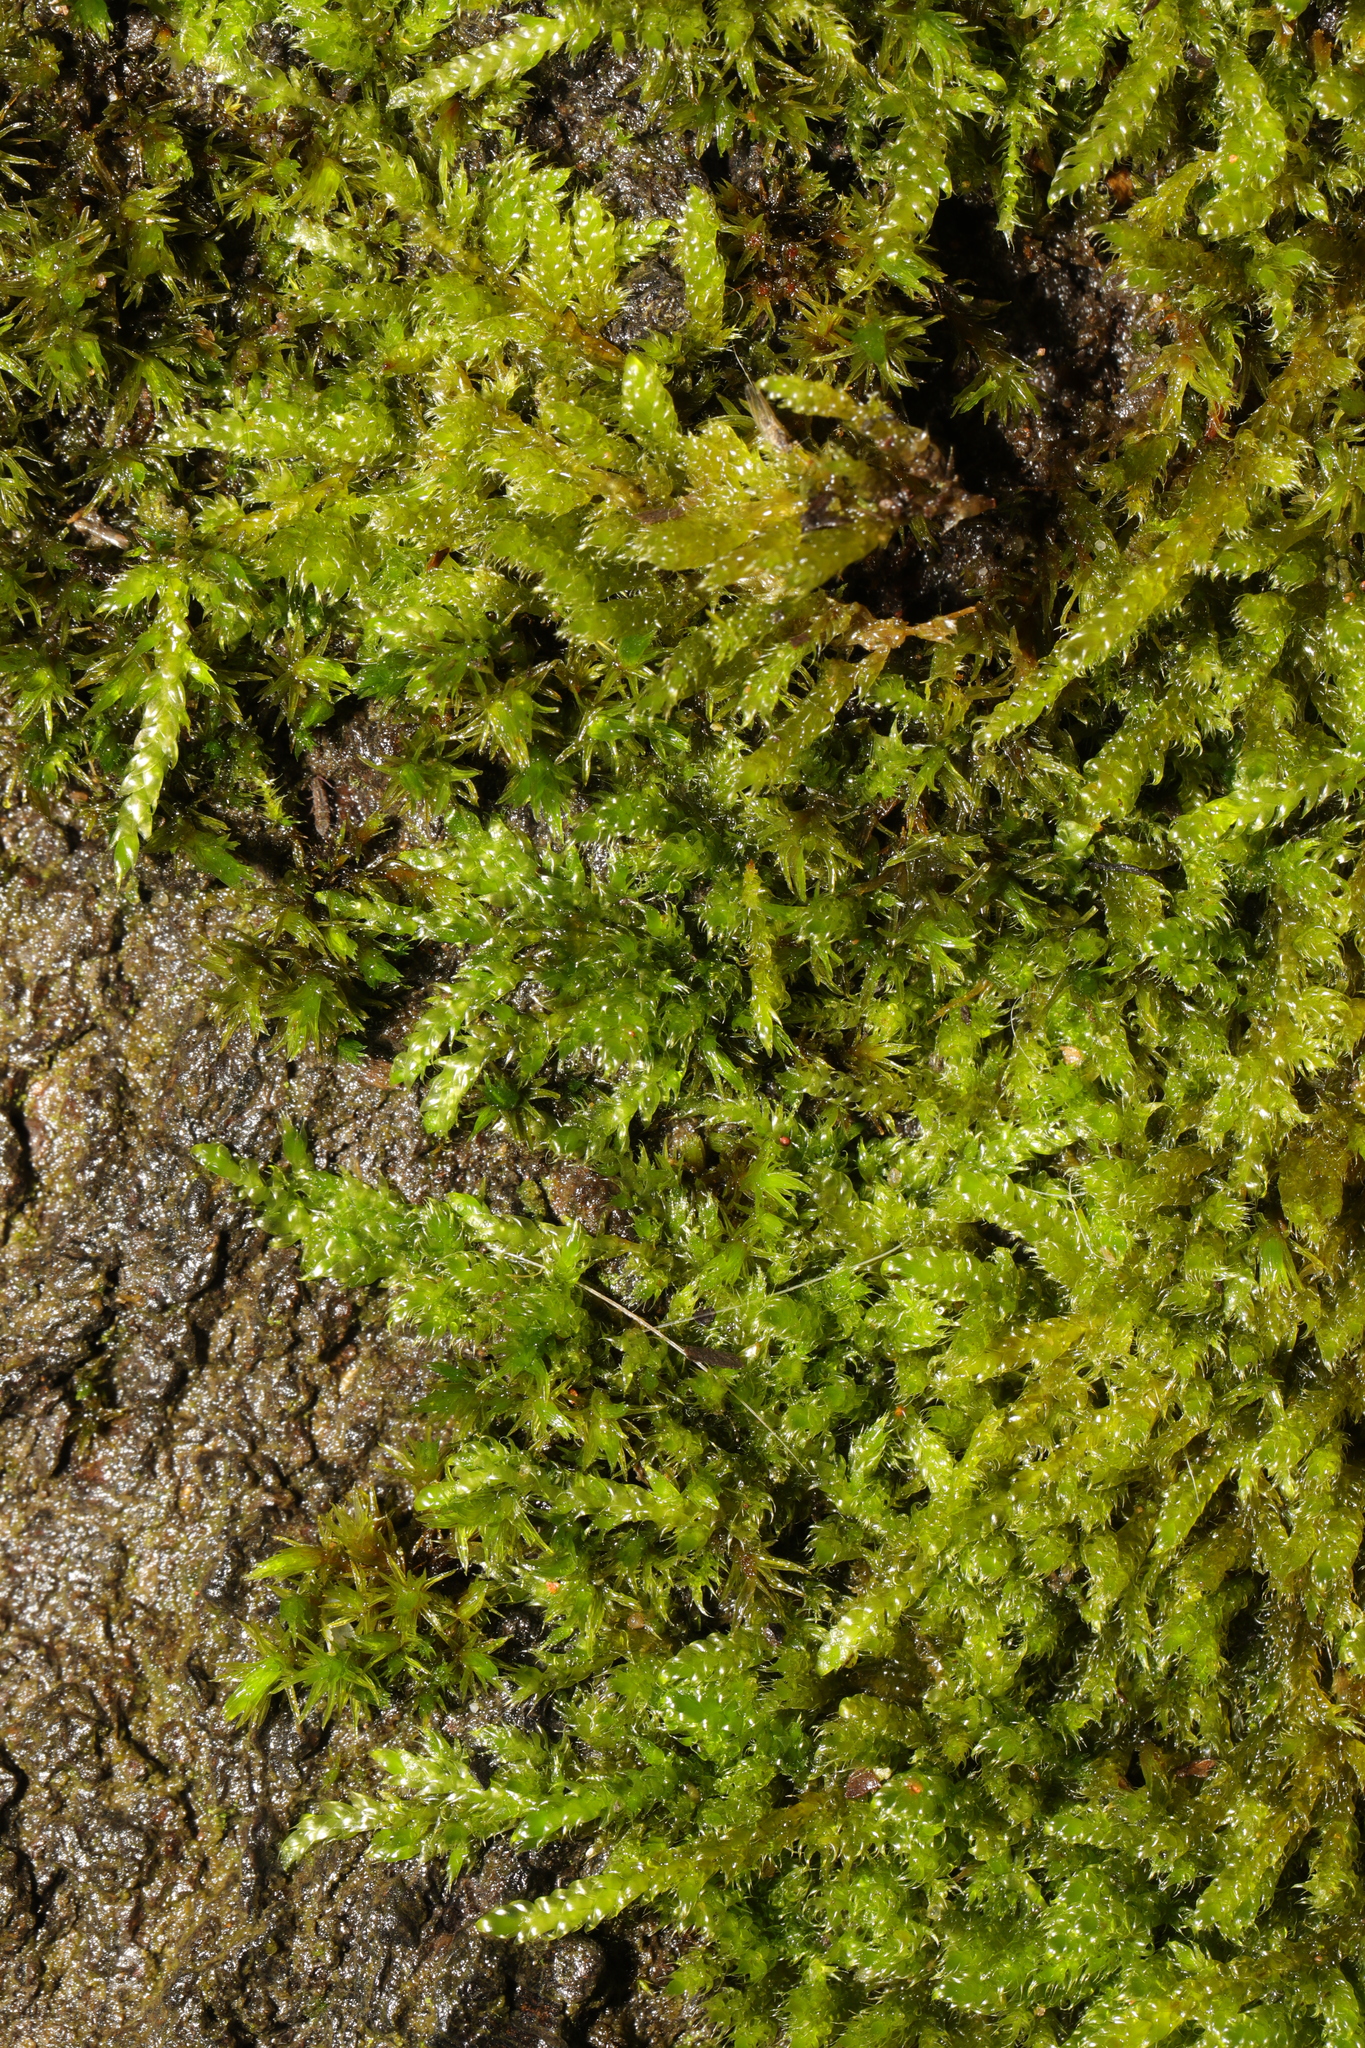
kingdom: Plantae
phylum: Bryophyta
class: Bryopsida
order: Hypnales
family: Hypnaceae
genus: Hypnum
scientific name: Hypnum cupressiforme
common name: Cypress-leaved plait-moss
